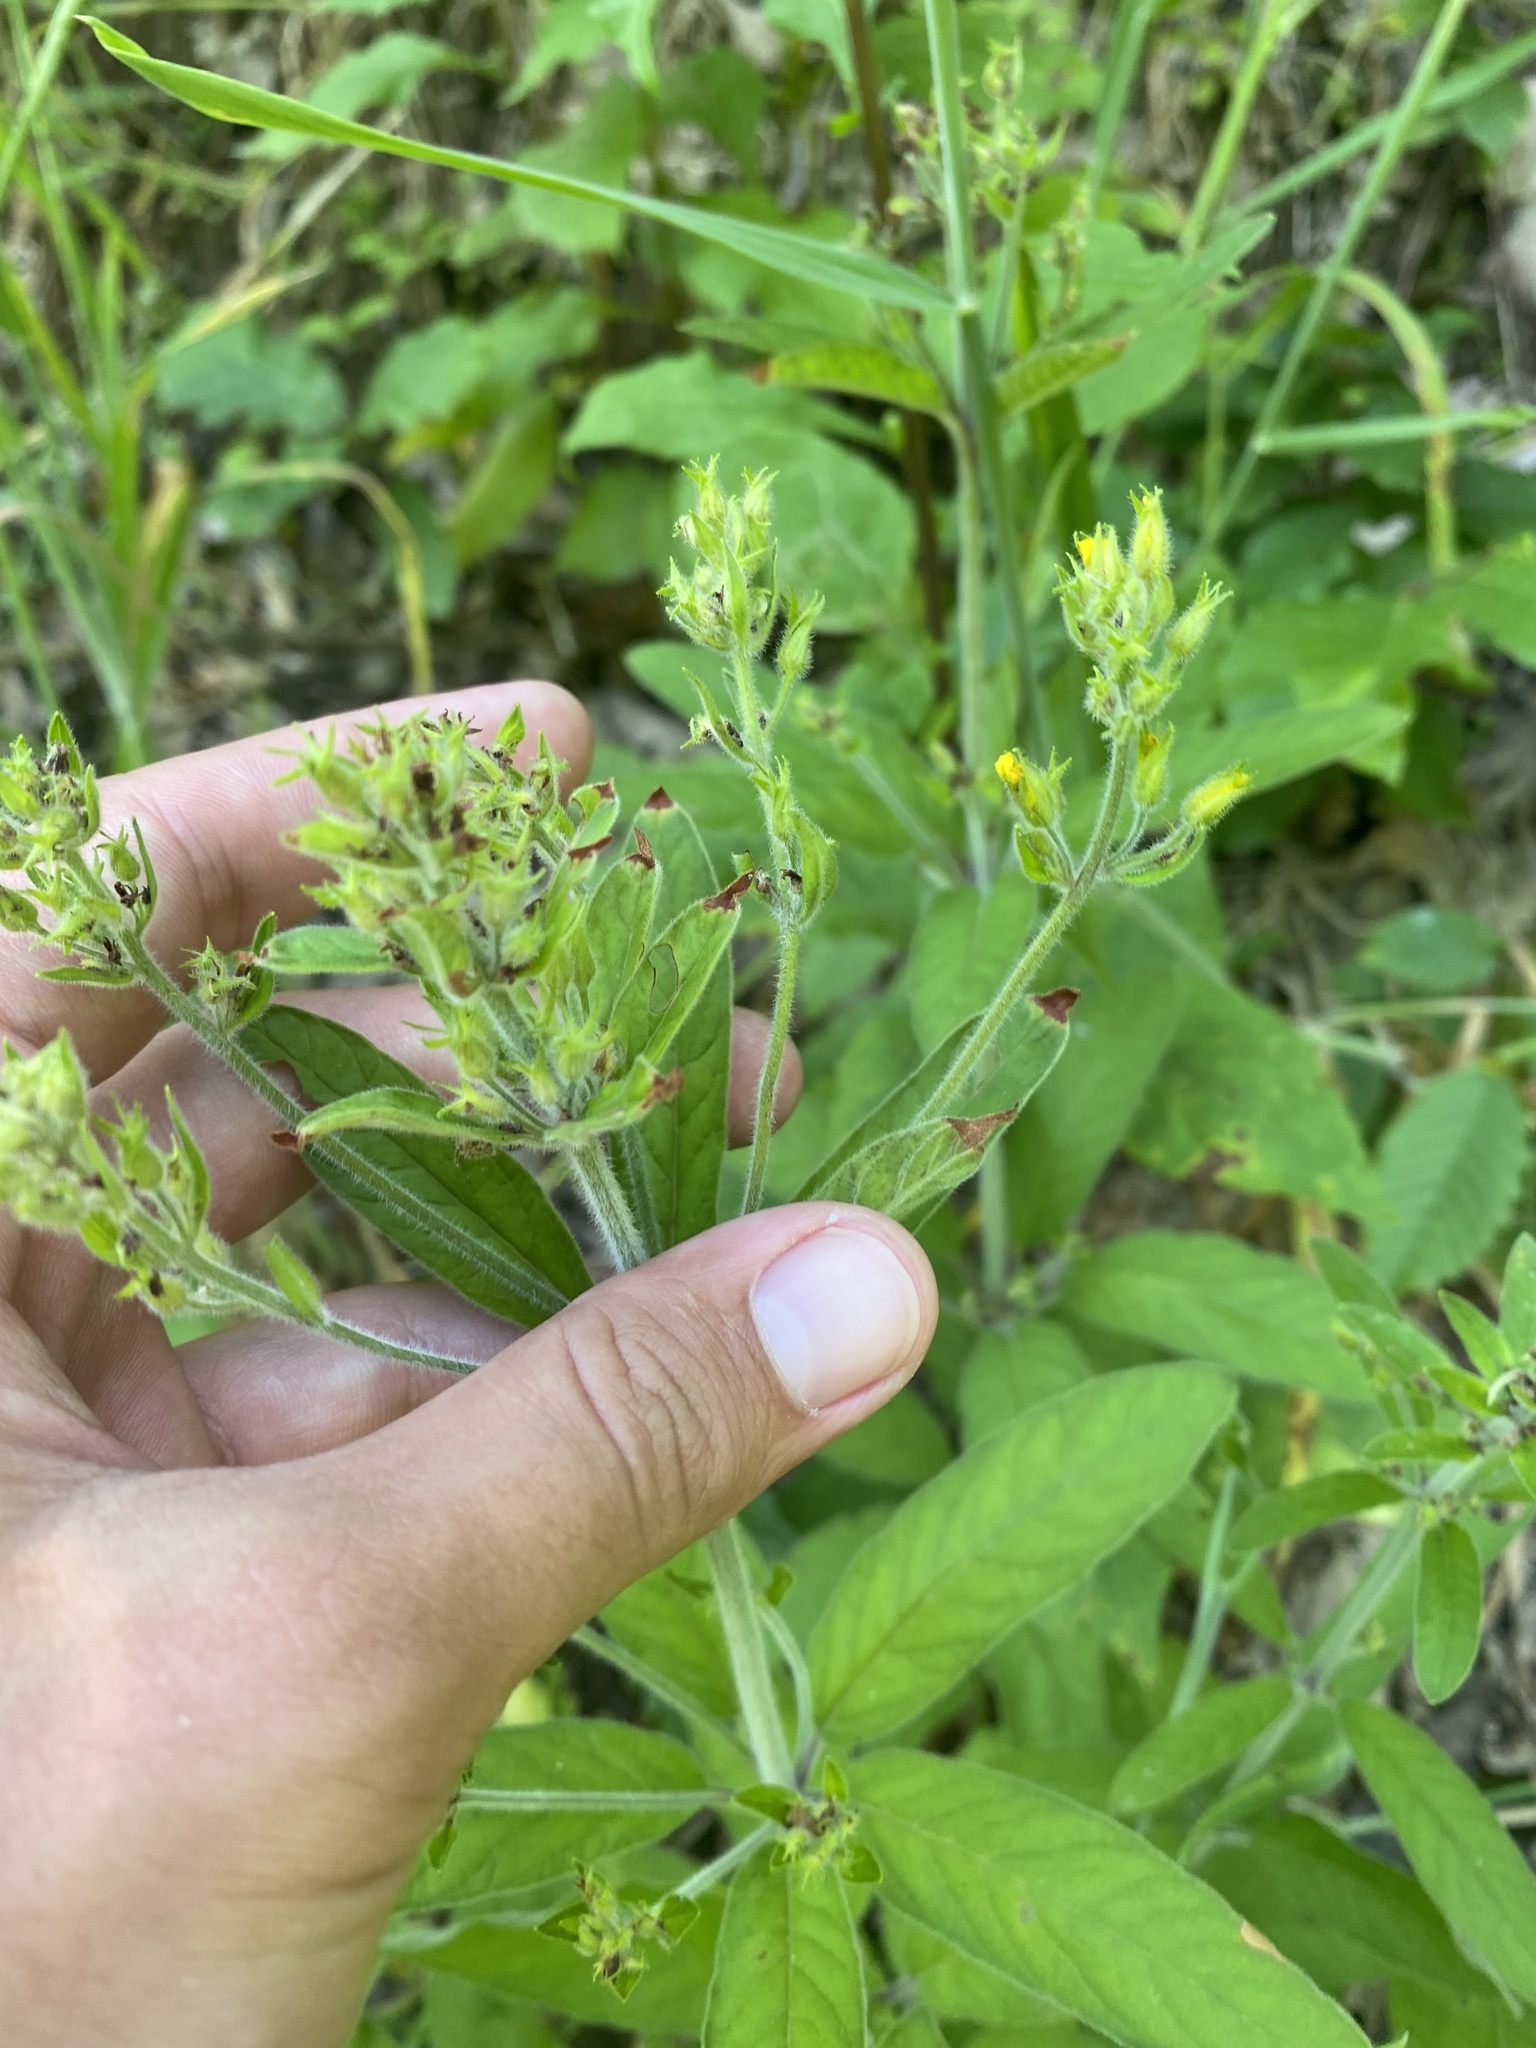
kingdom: Plantae
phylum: Tracheophyta
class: Magnoliopsida
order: Ericales
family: Primulaceae
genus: Lysimachia
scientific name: Lysimachia verticillaris
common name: Yellow loosestrife
